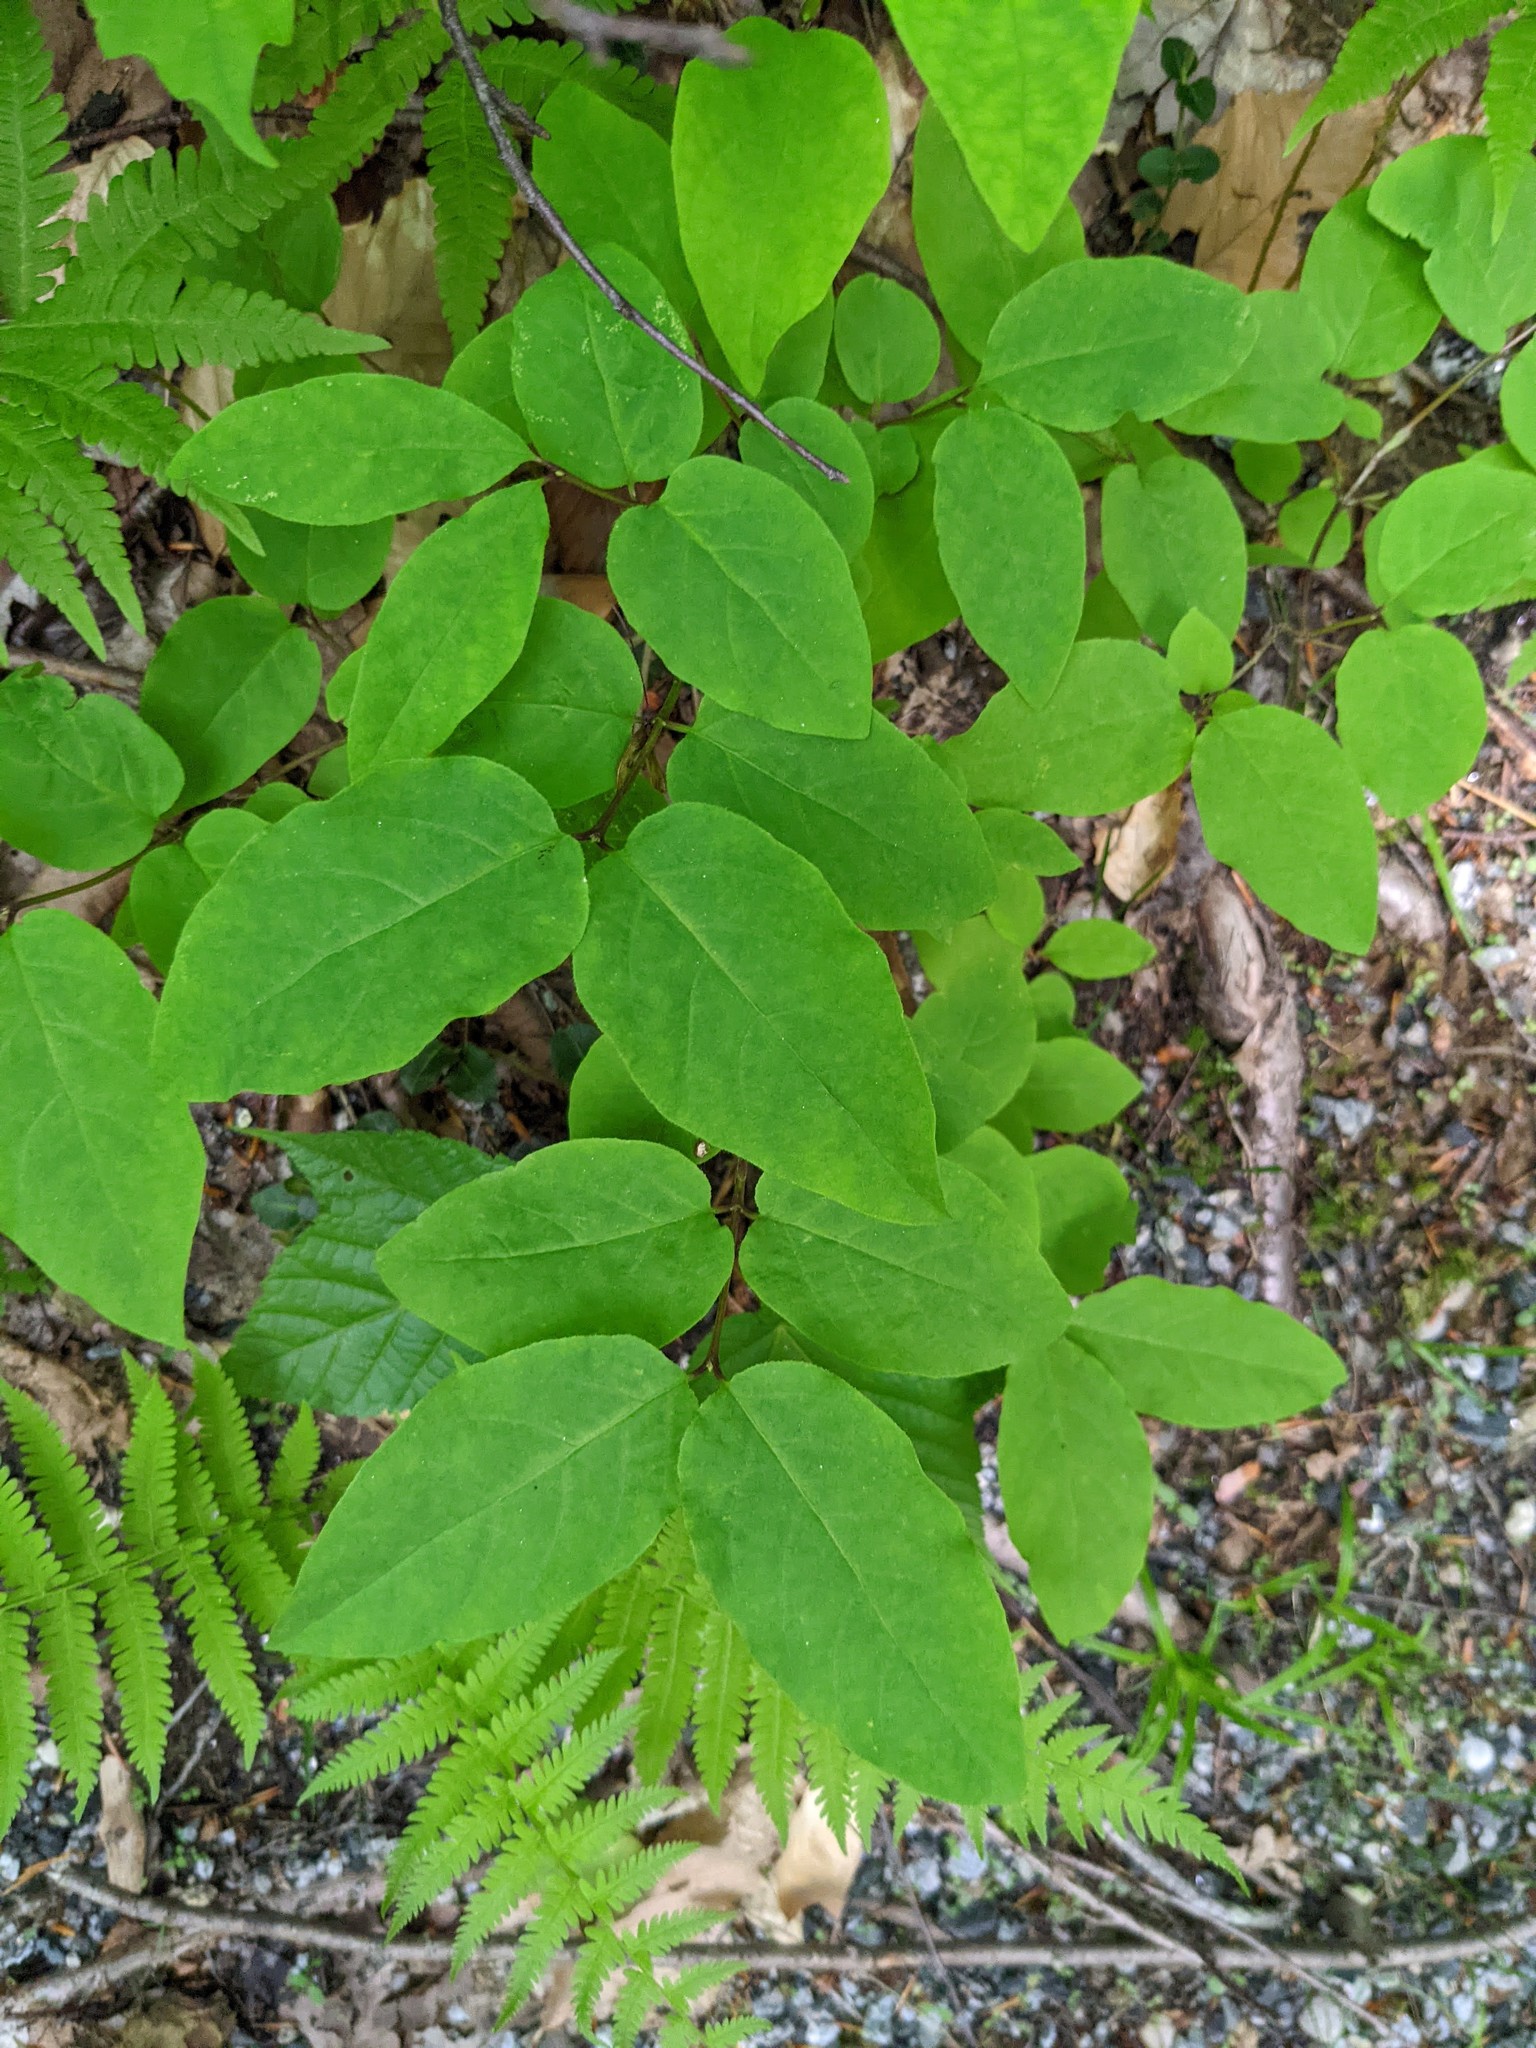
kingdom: Plantae
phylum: Tracheophyta
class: Magnoliopsida
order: Dipsacales
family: Caprifoliaceae
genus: Lonicera
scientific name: Lonicera canadensis
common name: American fly-honeysuckle
